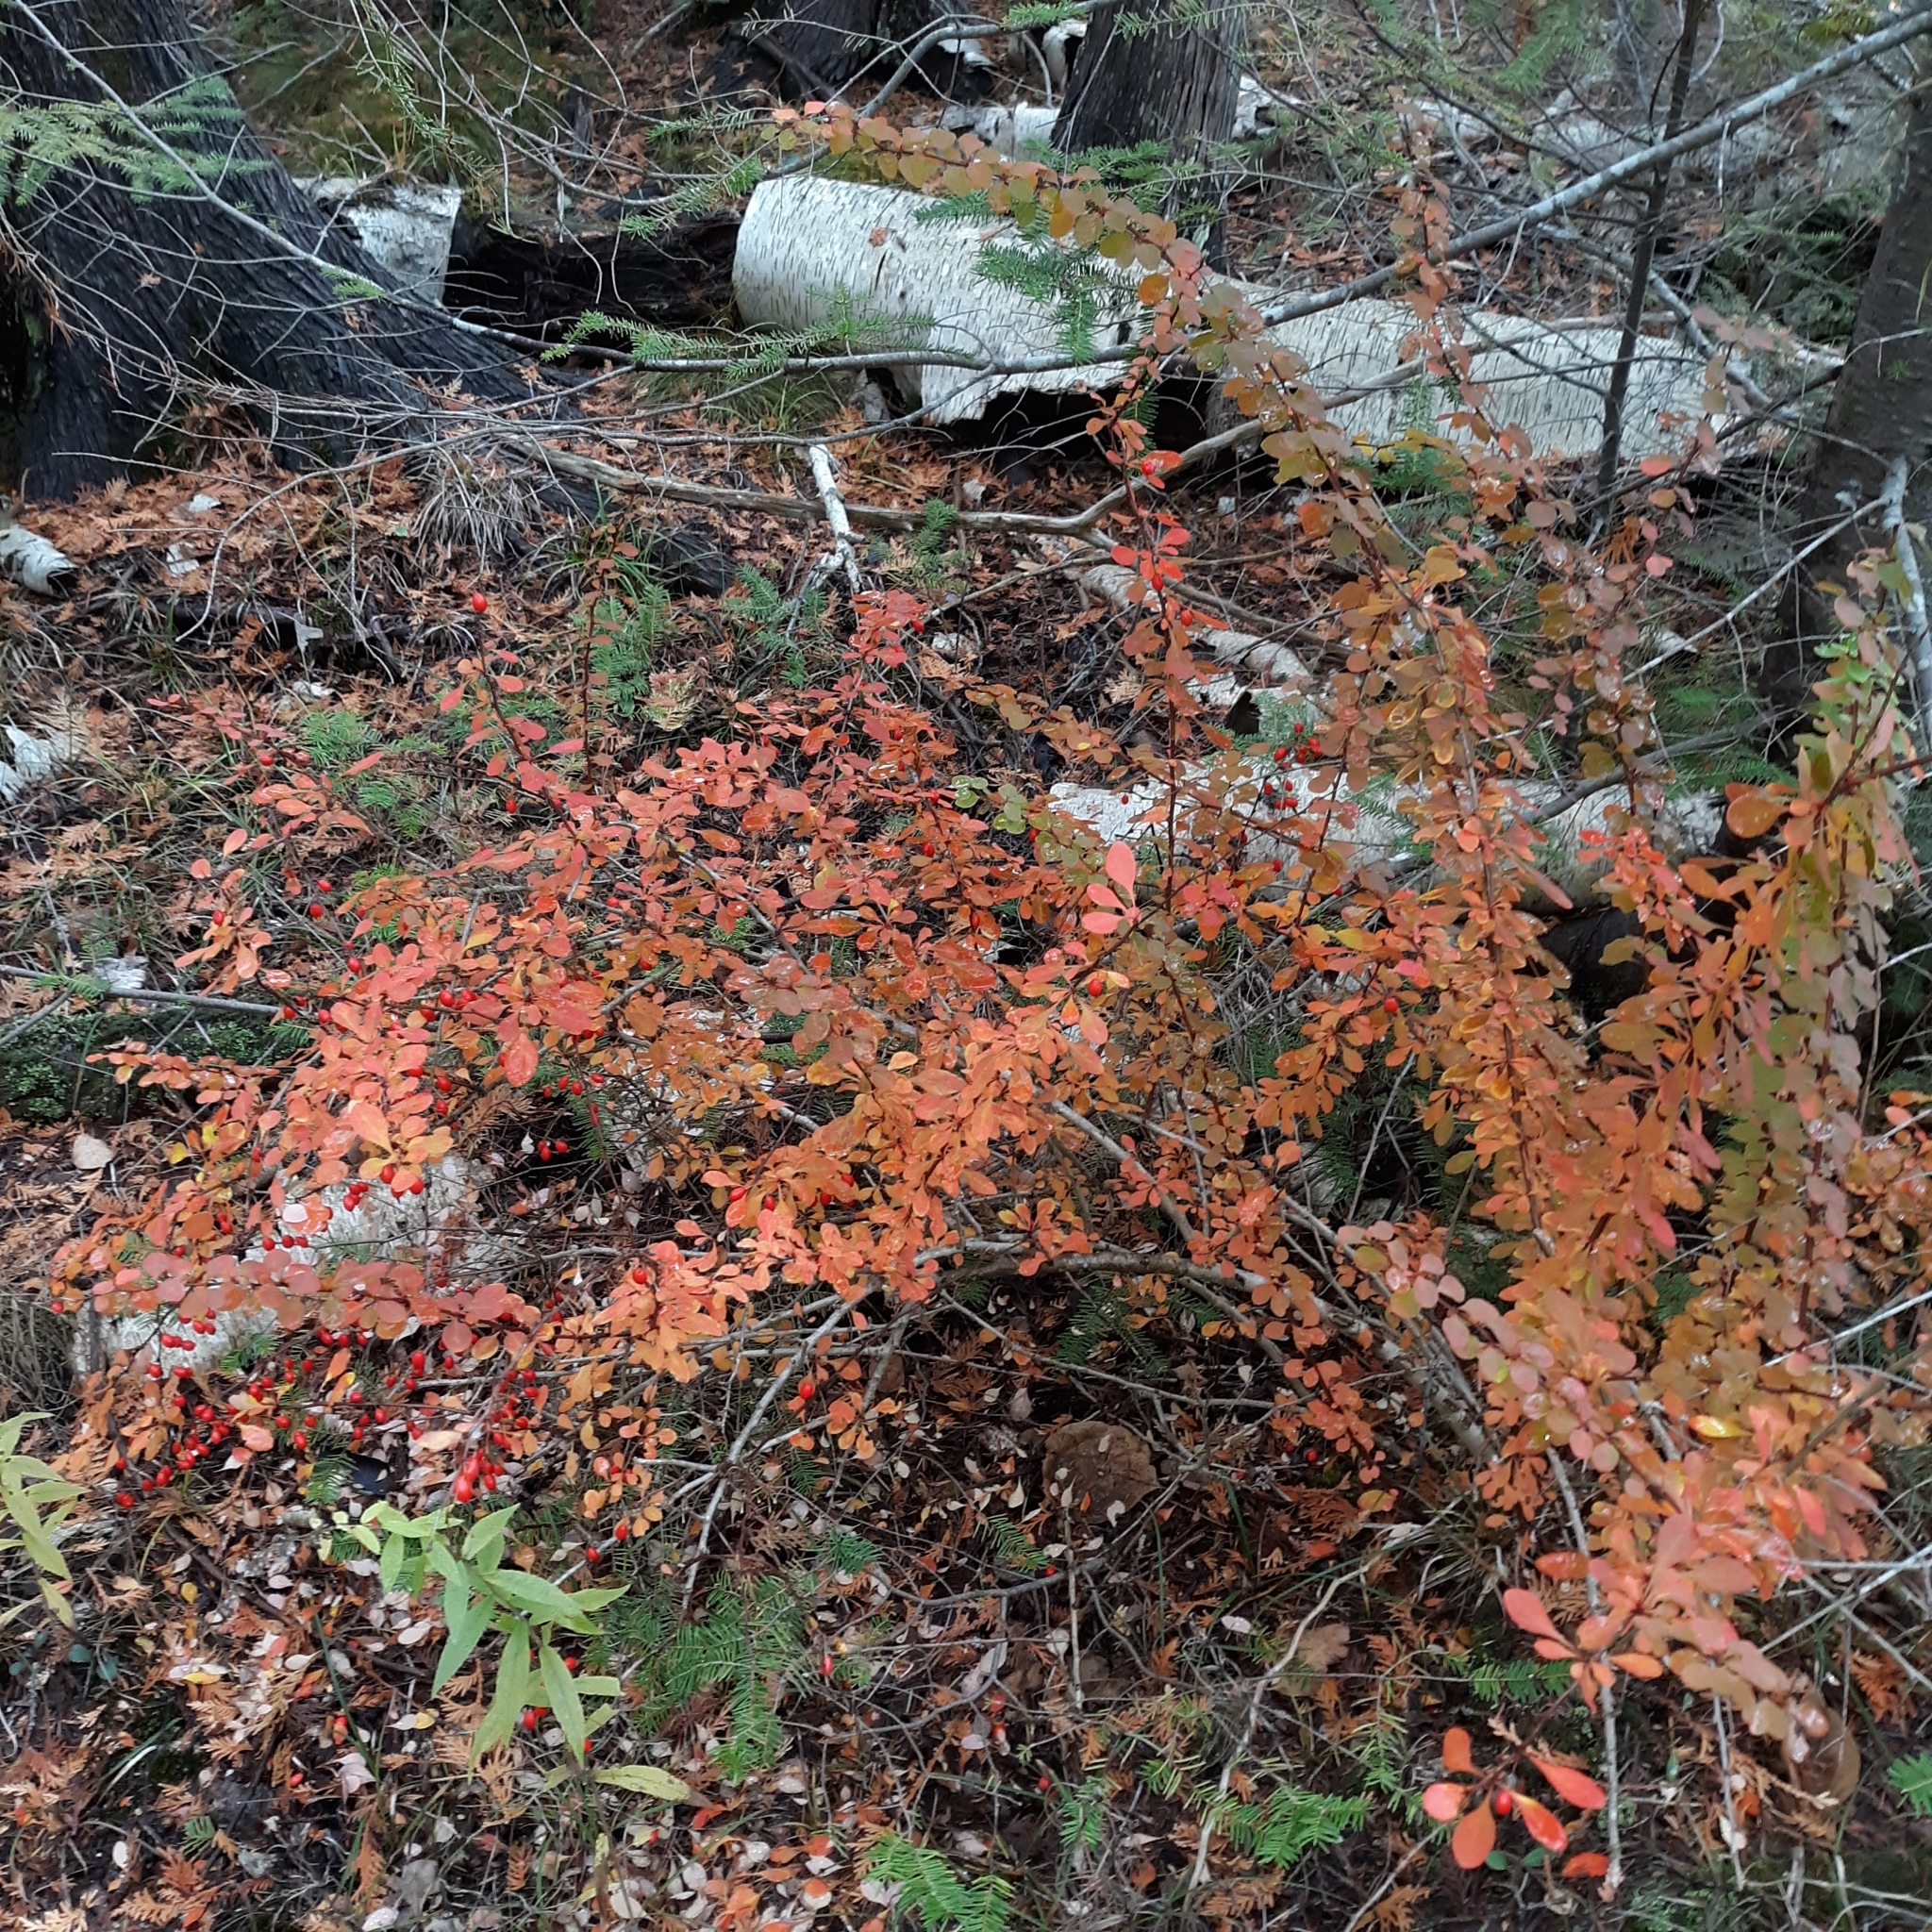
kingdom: Plantae
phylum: Tracheophyta
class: Magnoliopsida
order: Ranunculales
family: Berberidaceae
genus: Berberis
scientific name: Berberis thunbergii
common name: Japanese barberry
